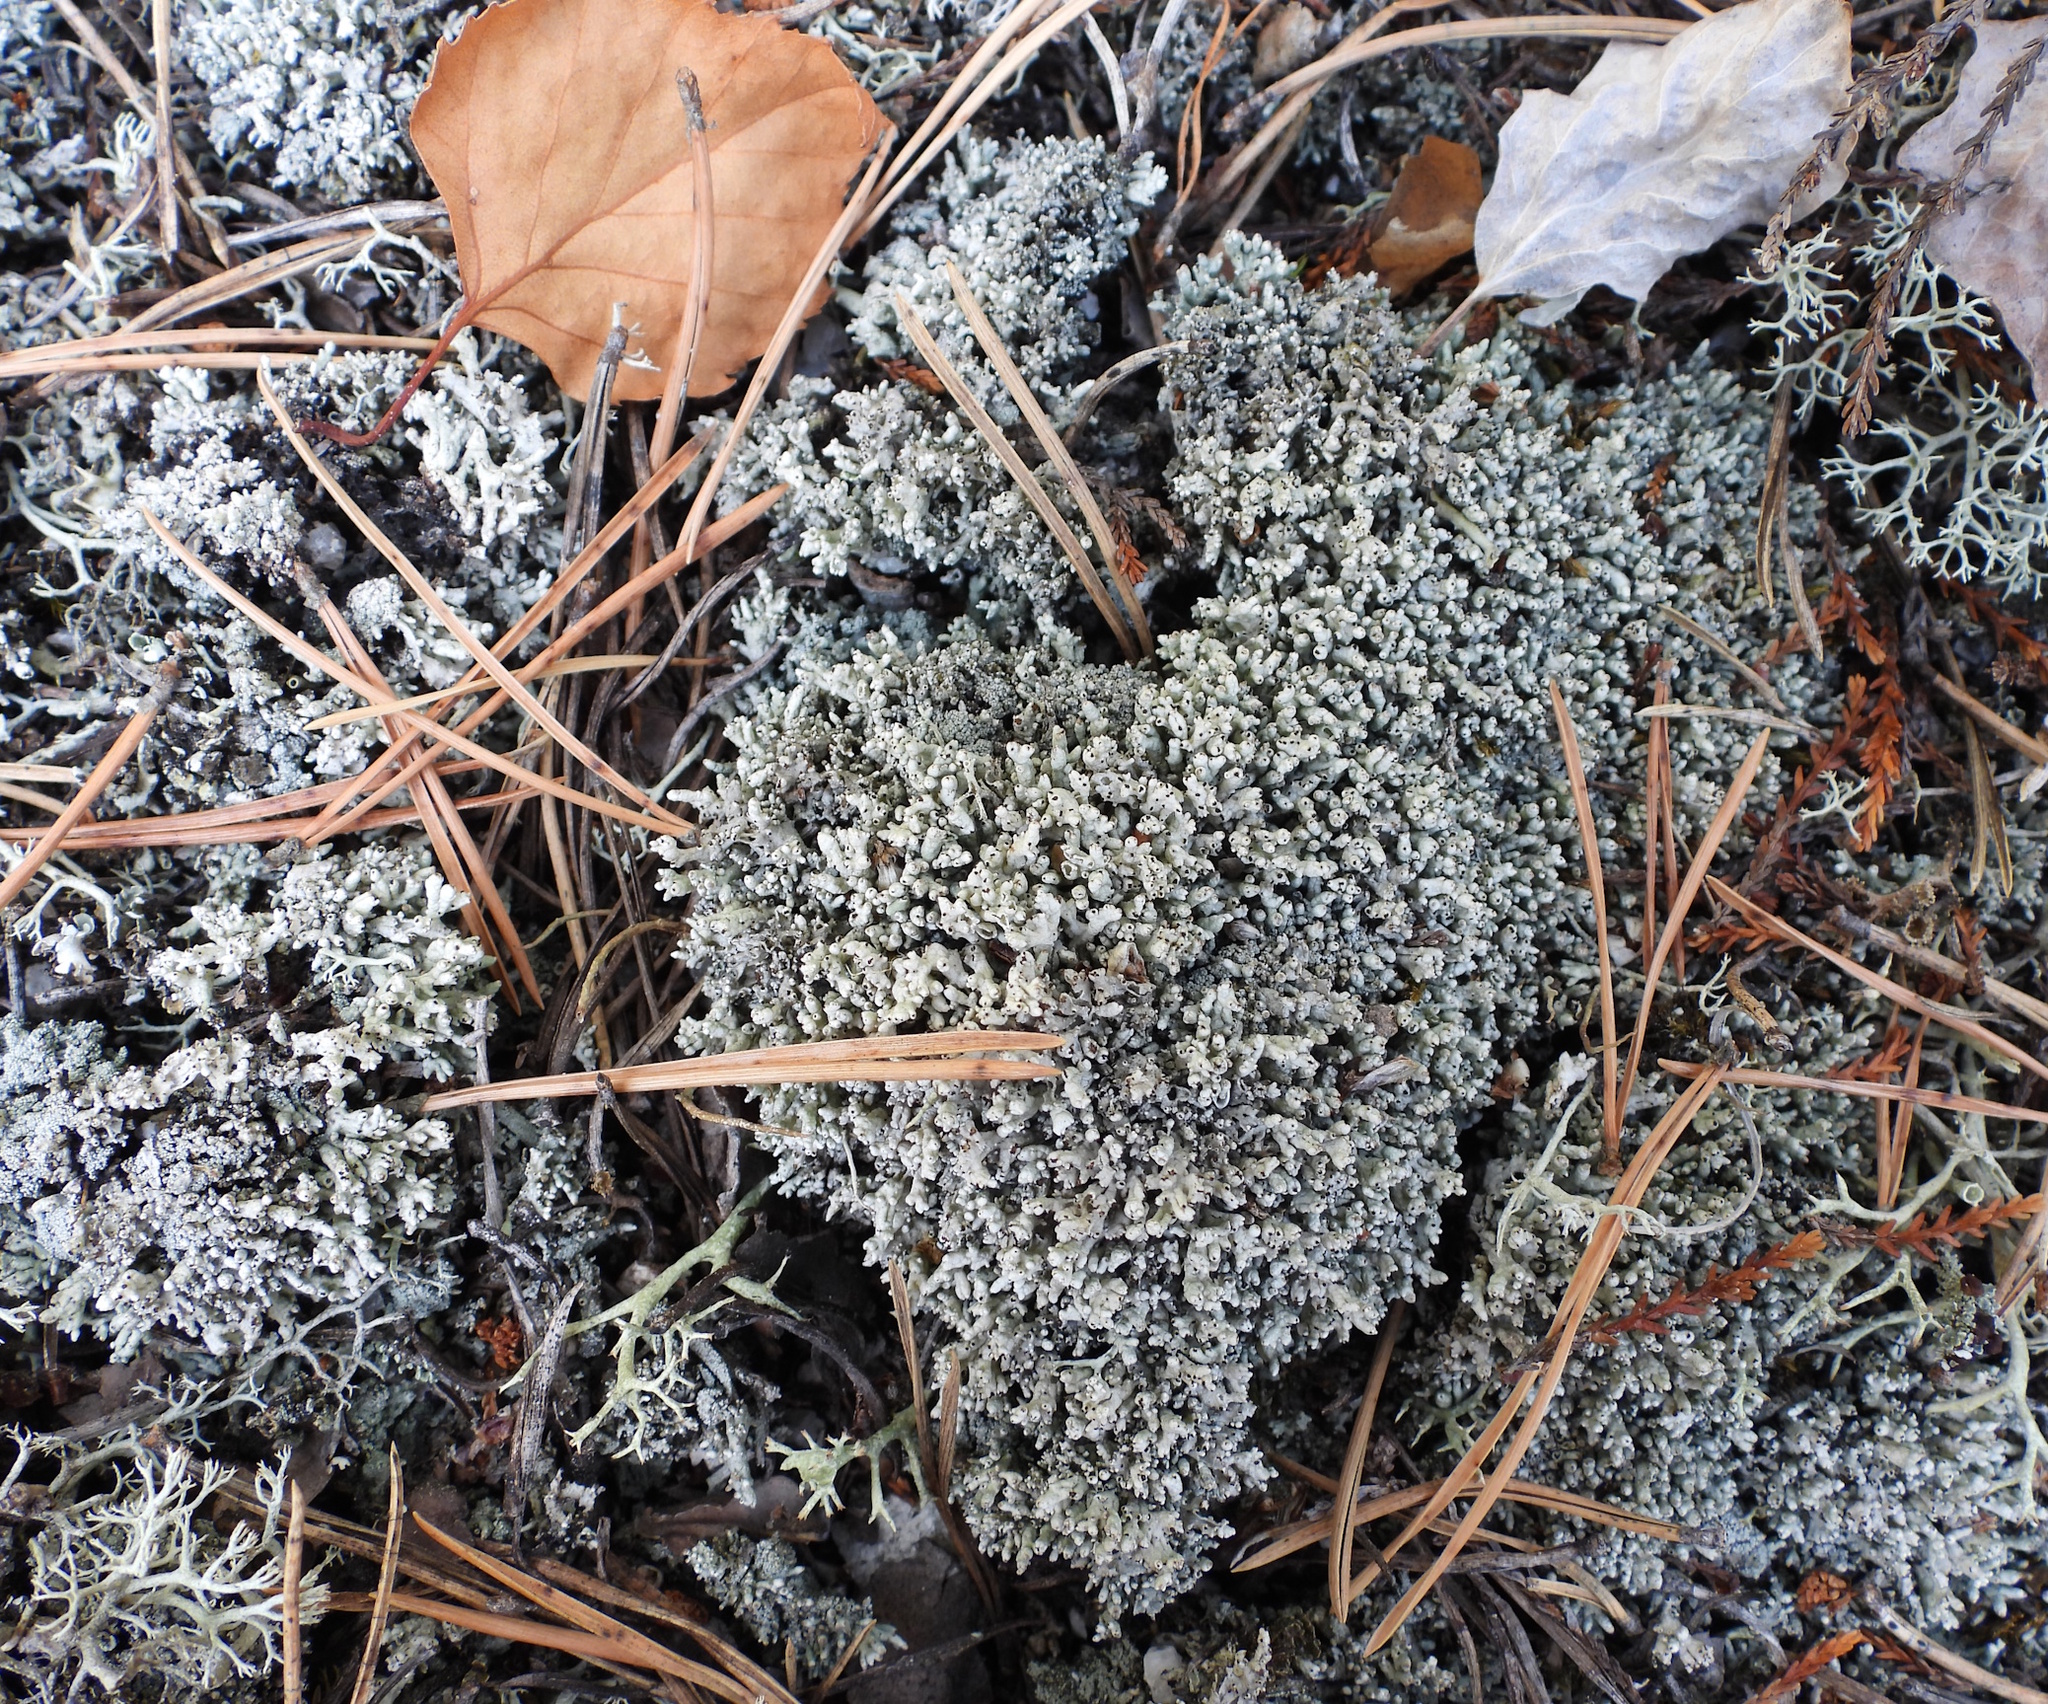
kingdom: Fungi
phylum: Ascomycota
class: Lecanoromycetes
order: Lecanorales
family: Cladoniaceae
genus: Pycnothelia
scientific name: Pycnothelia papillaria
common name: Nipple lichen
